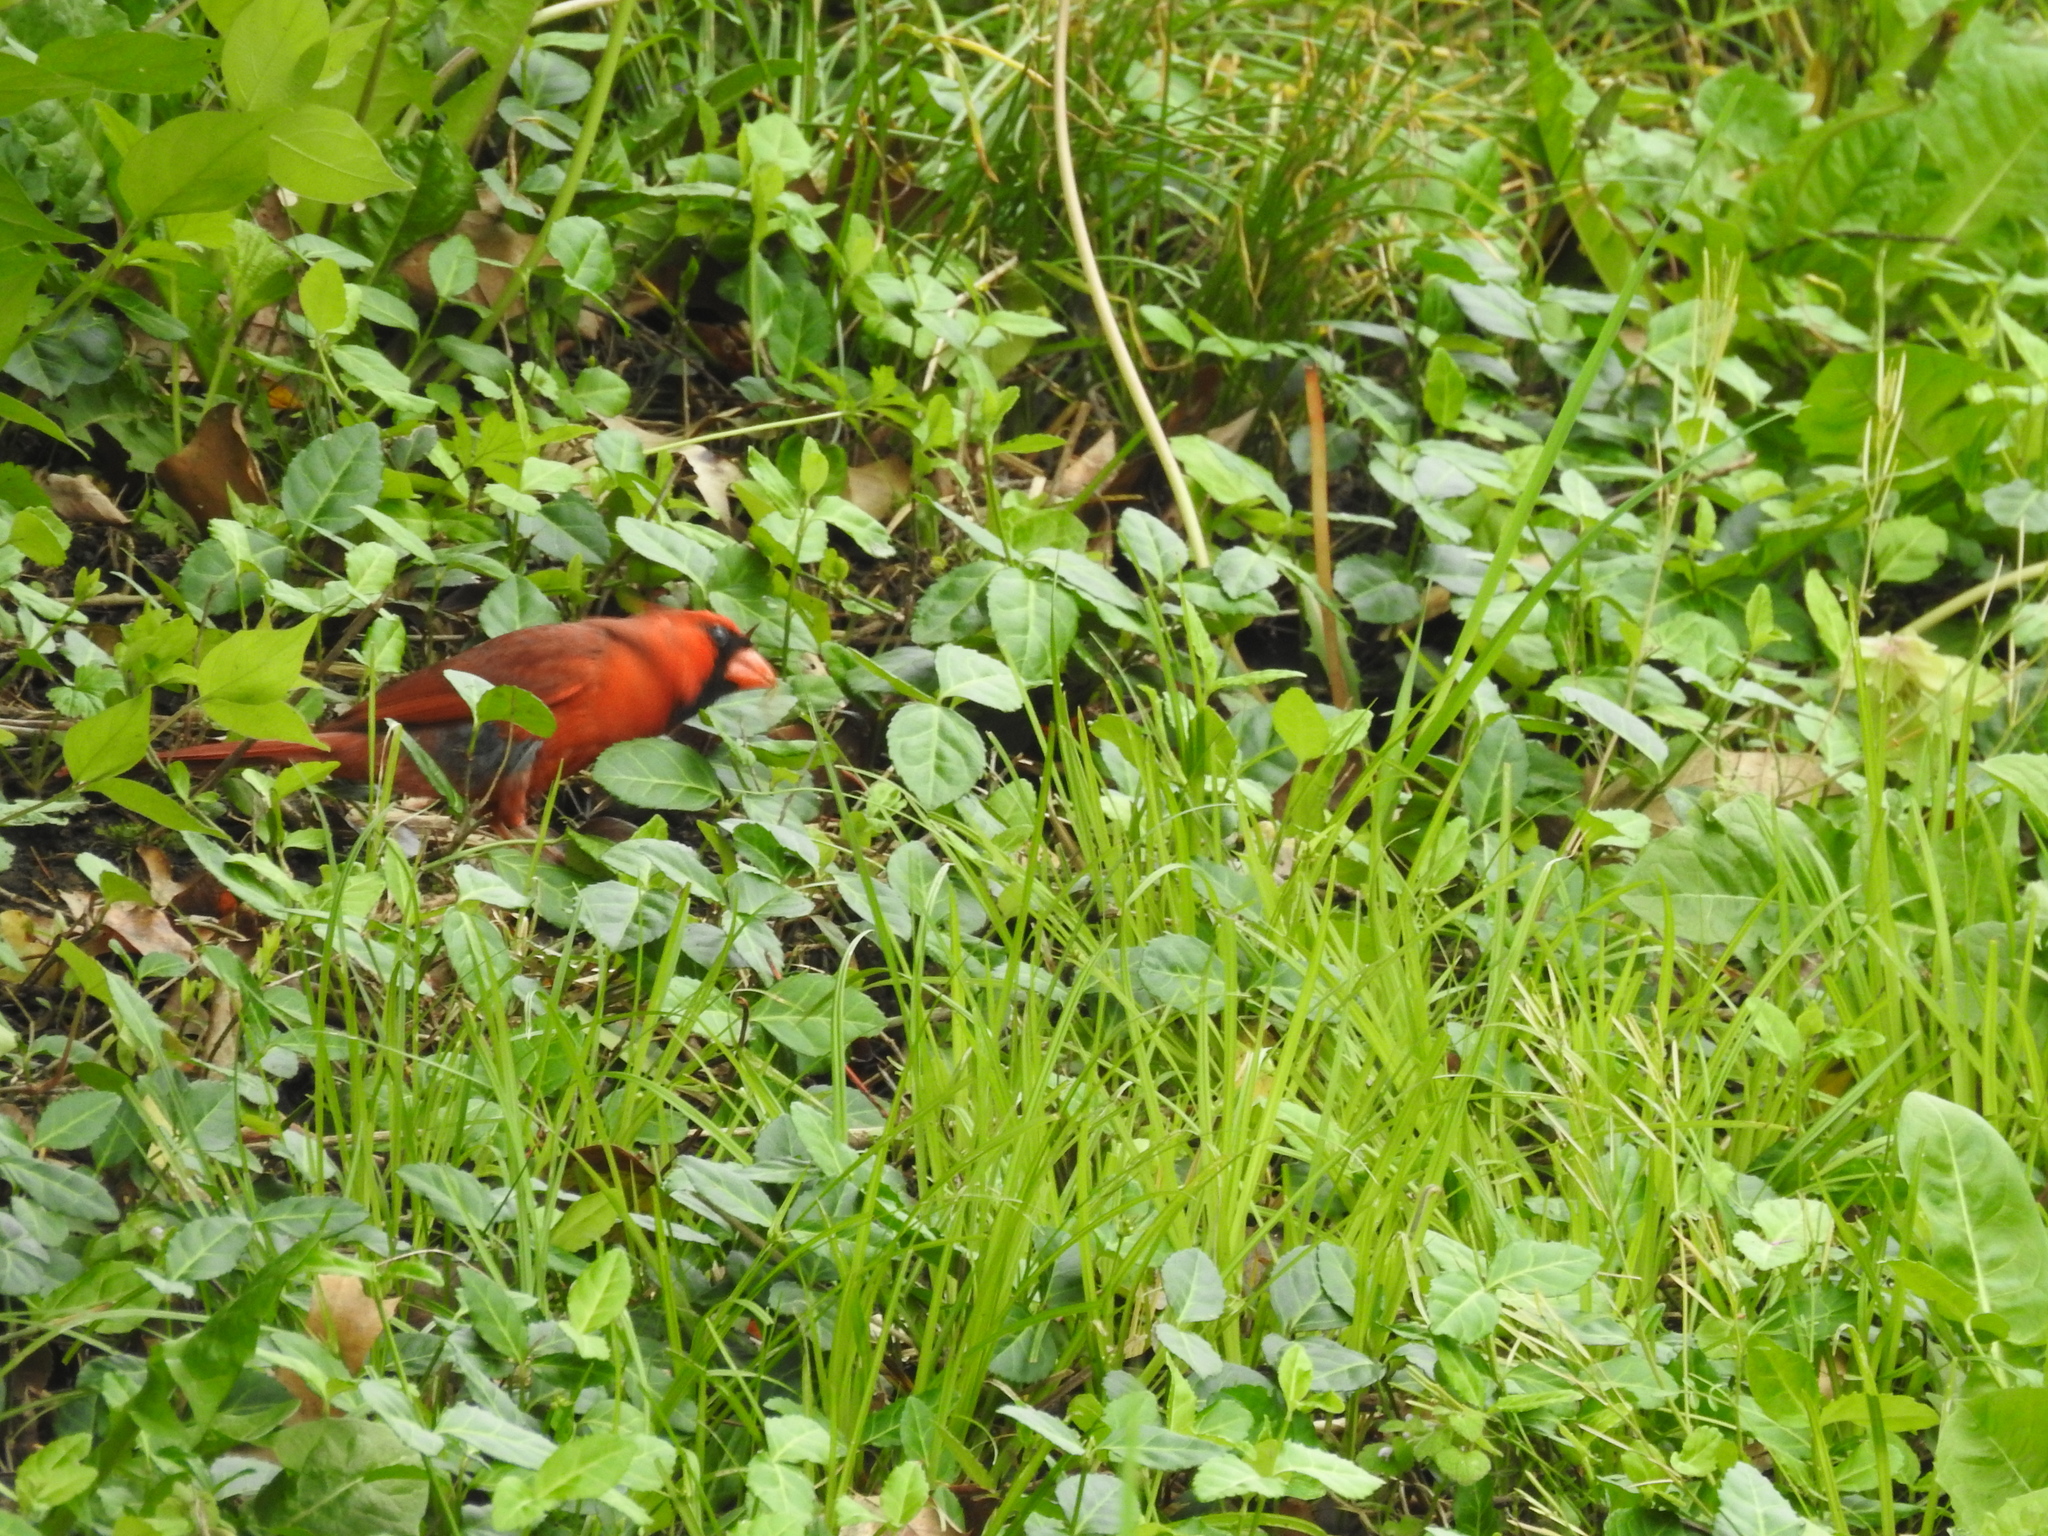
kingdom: Animalia
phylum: Chordata
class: Aves
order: Passeriformes
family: Cardinalidae
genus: Cardinalis
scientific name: Cardinalis cardinalis
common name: Northern cardinal
